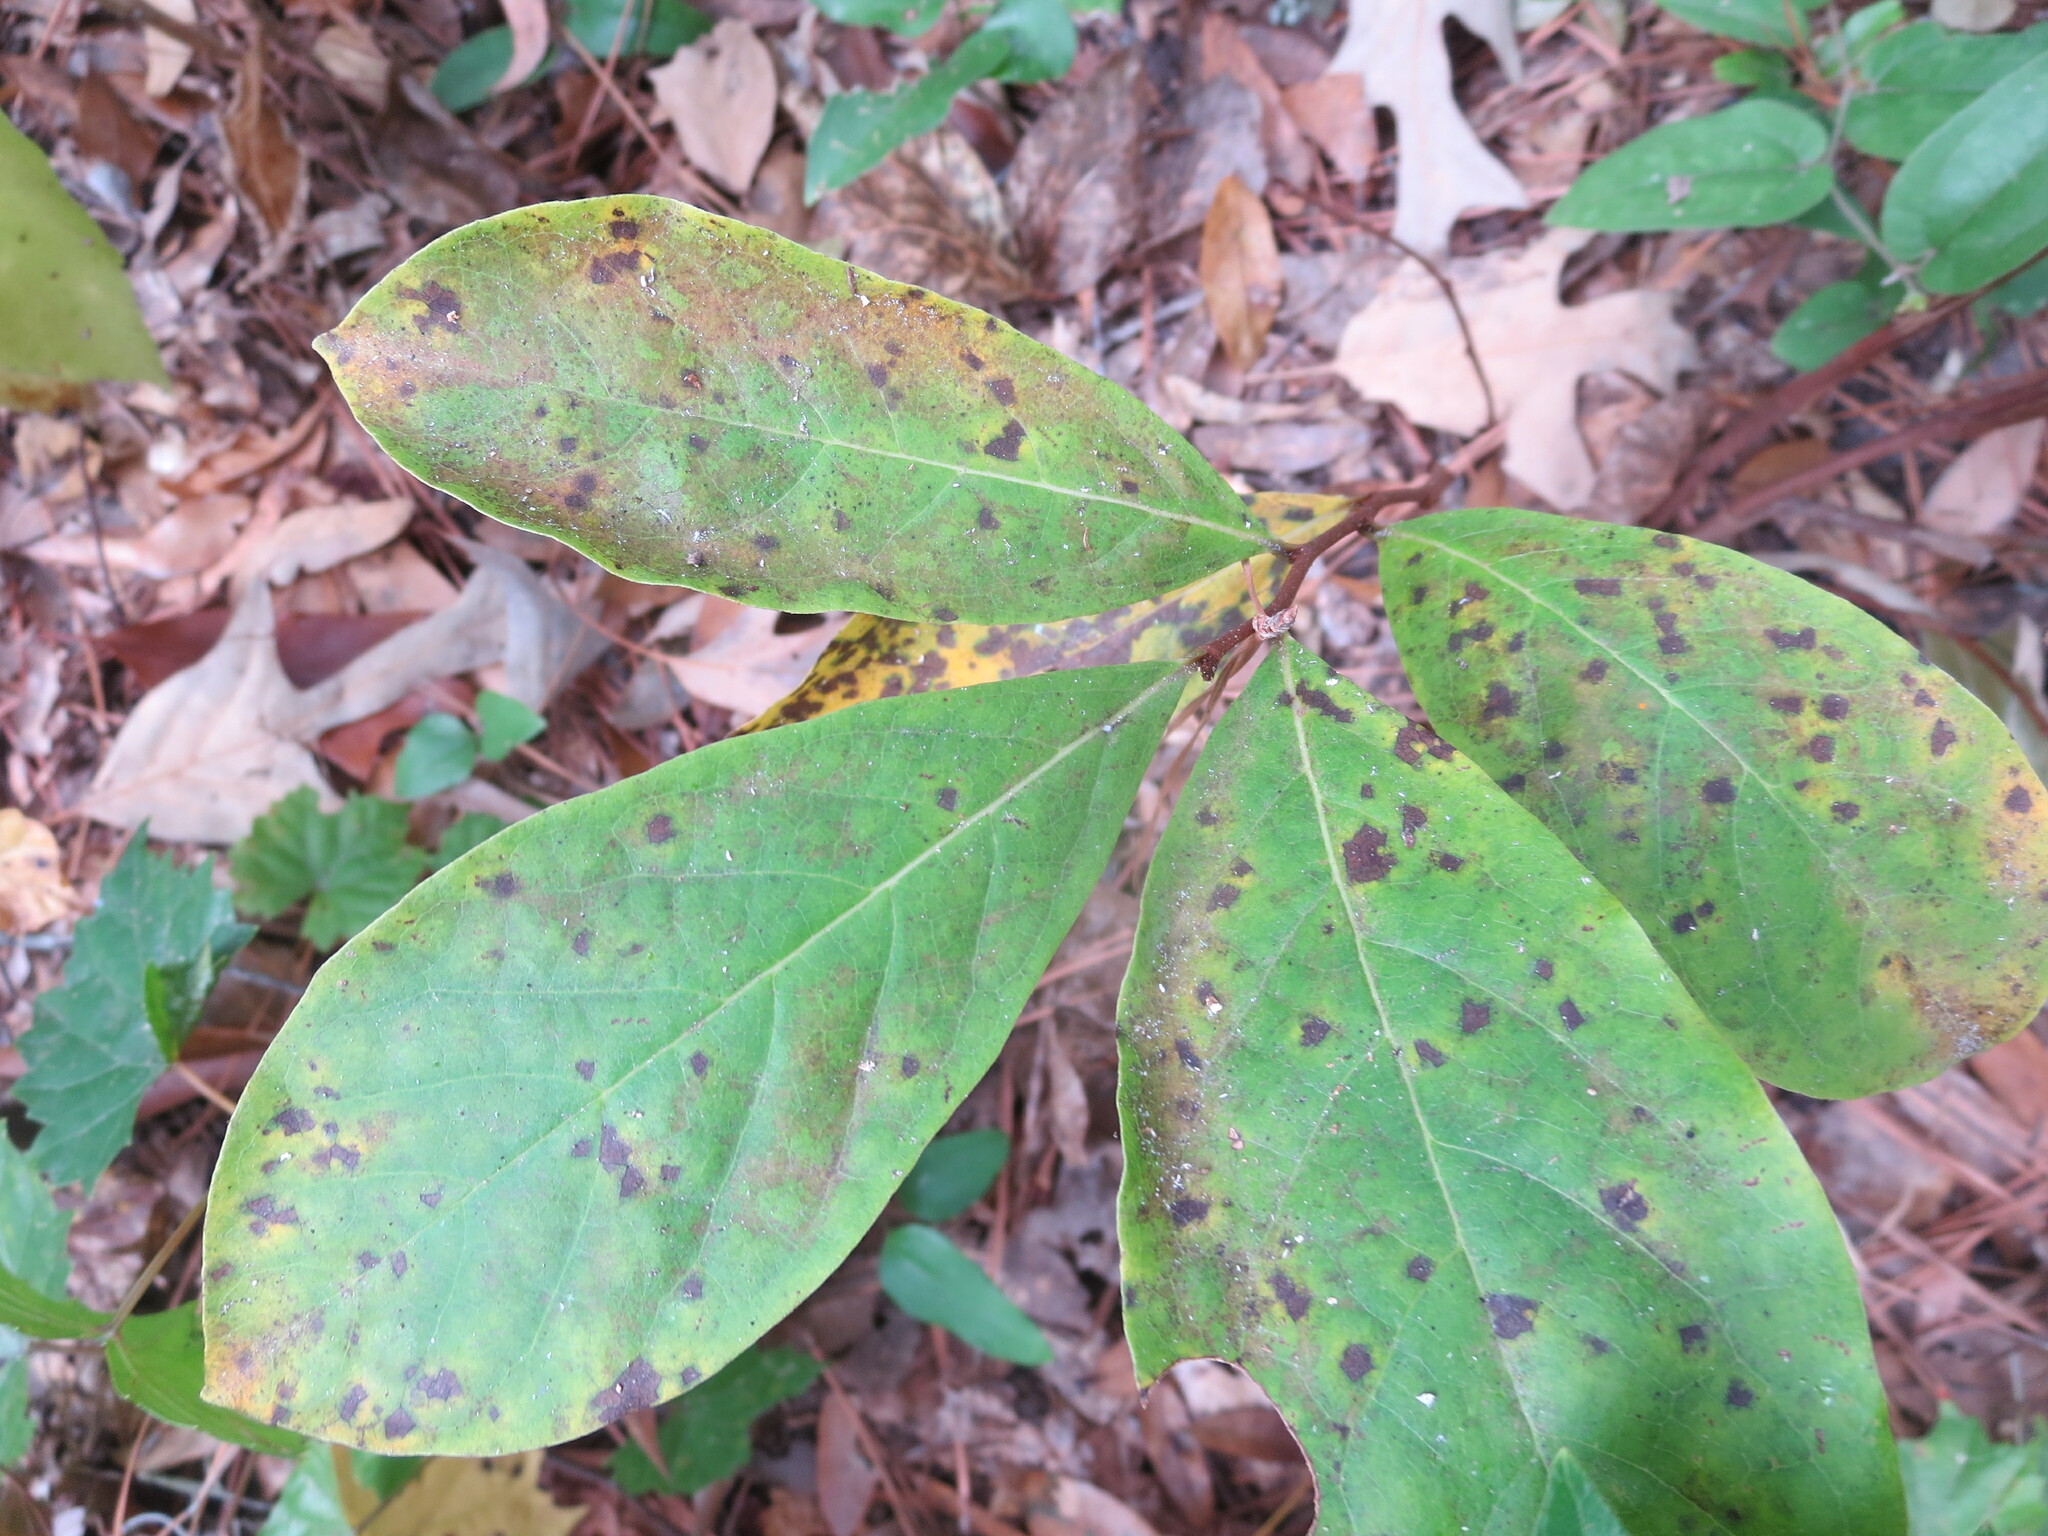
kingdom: Plantae
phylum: Tracheophyta
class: Magnoliopsida
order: Magnoliales
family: Annonaceae
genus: Asimina
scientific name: Asimina parviflora
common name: Dwarf pawpaw
